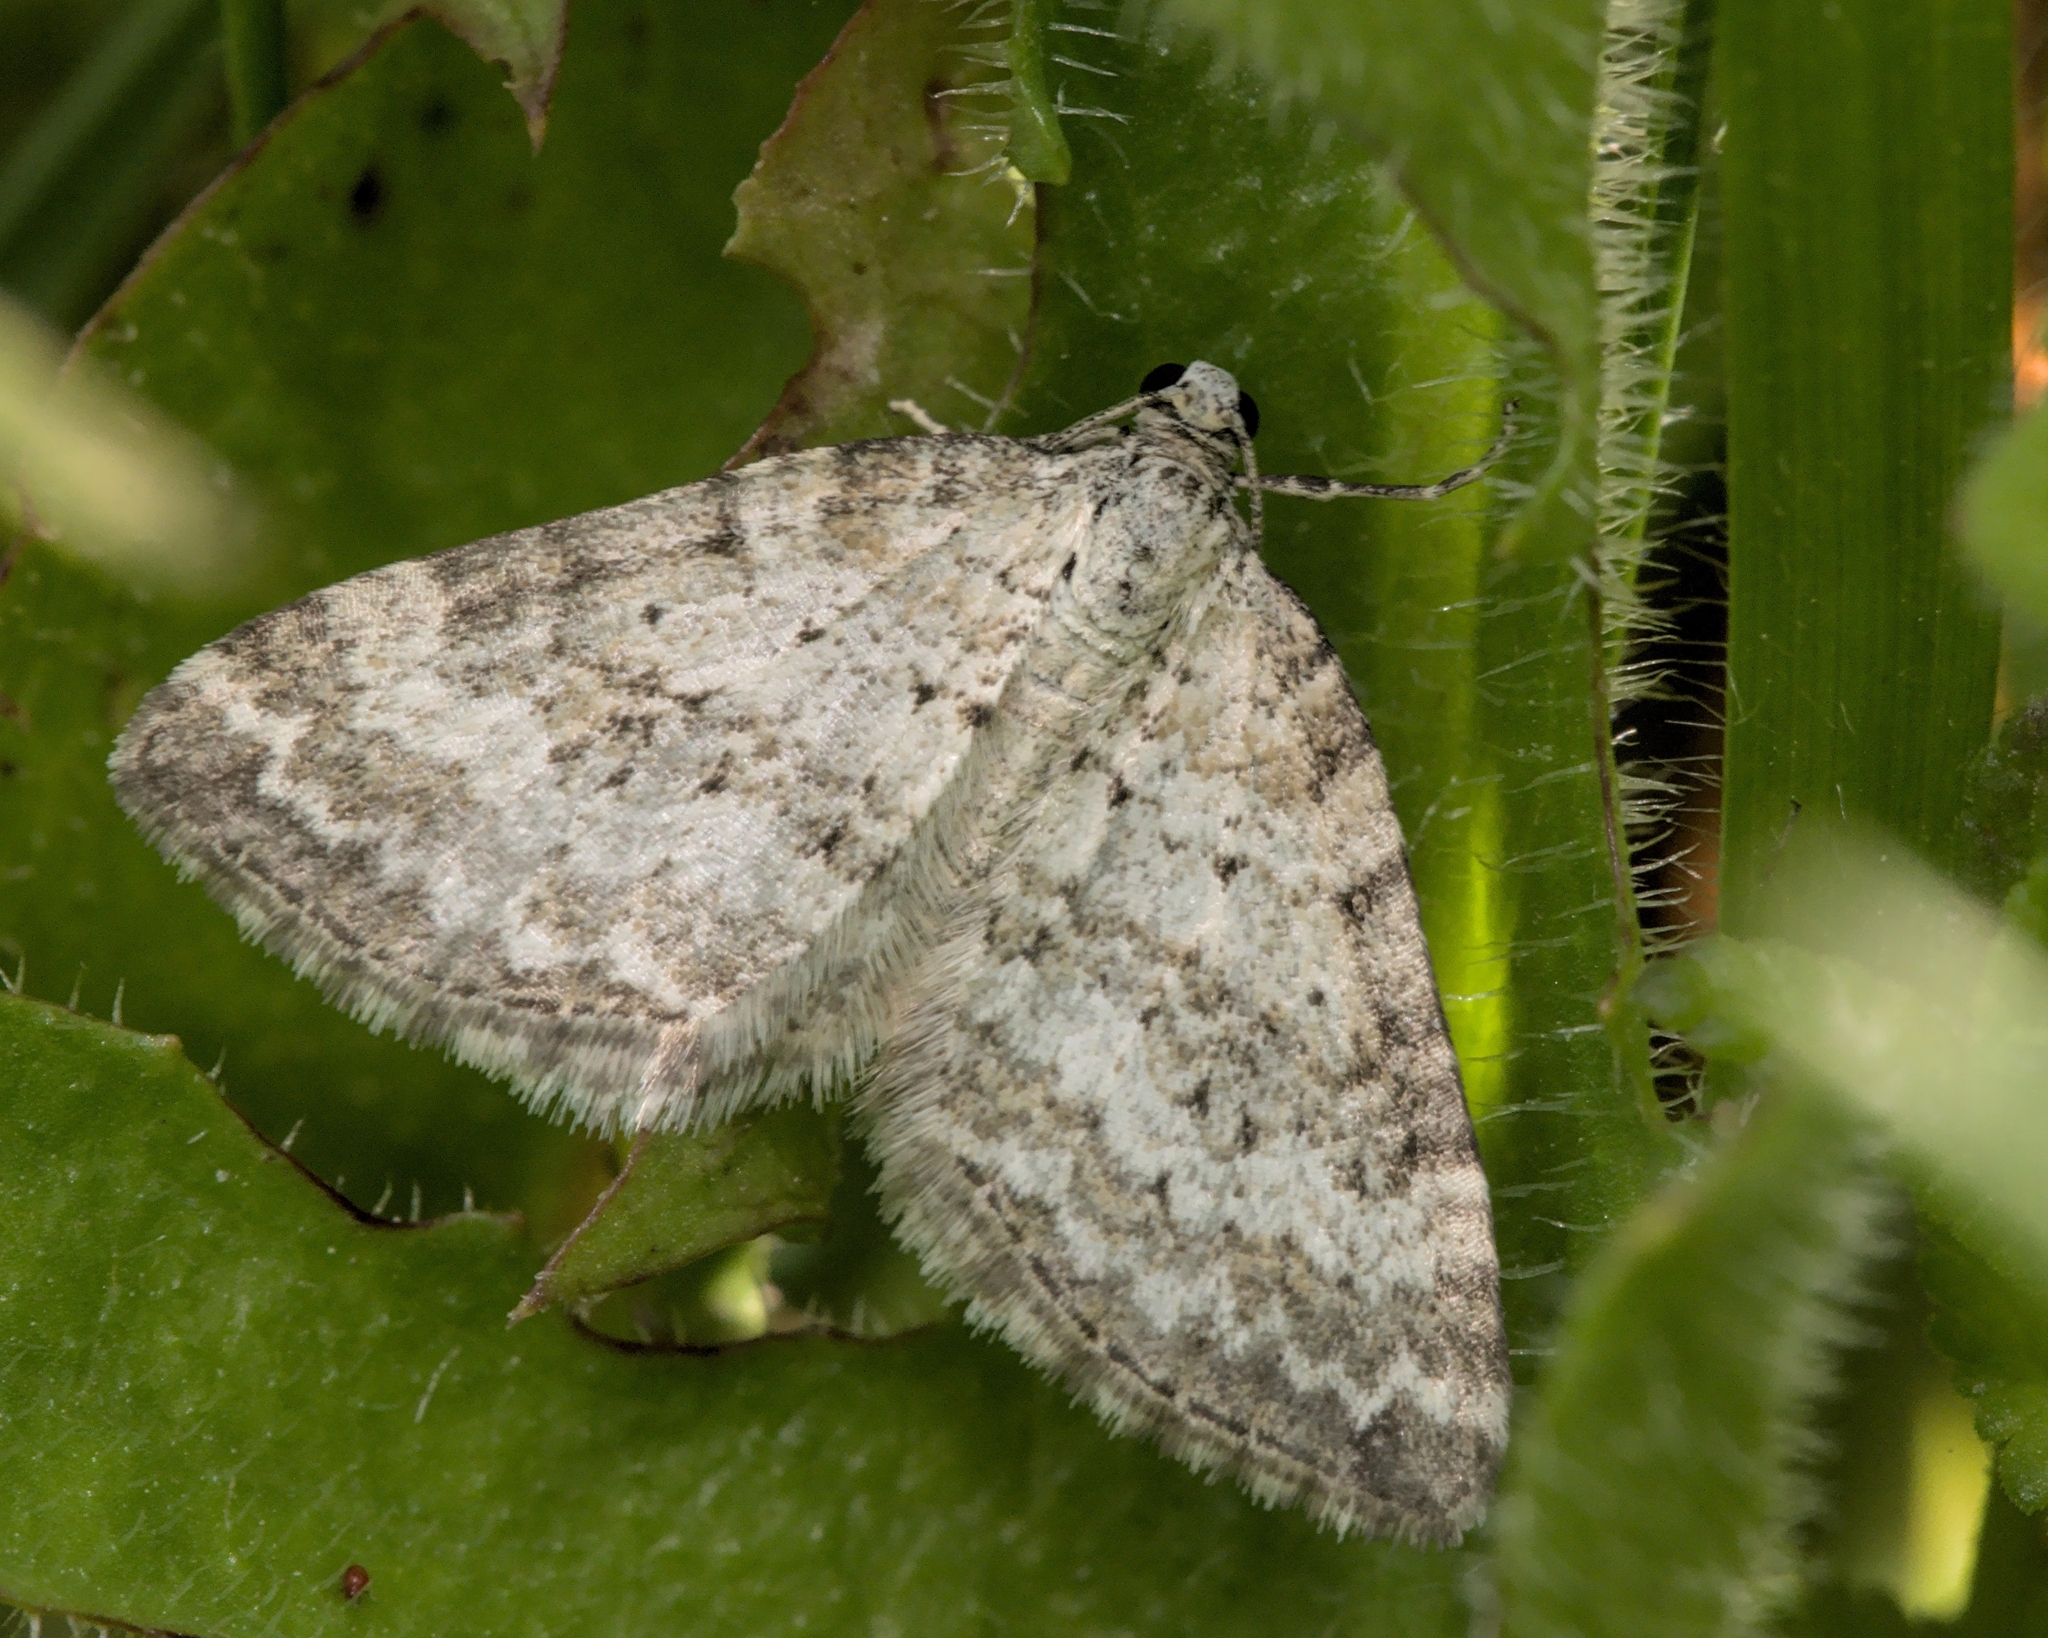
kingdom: Animalia
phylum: Arthropoda
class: Insecta
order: Lepidoptera
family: Geometridae
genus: Perizoma
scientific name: Perizoma albulata
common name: Grass rivulet
